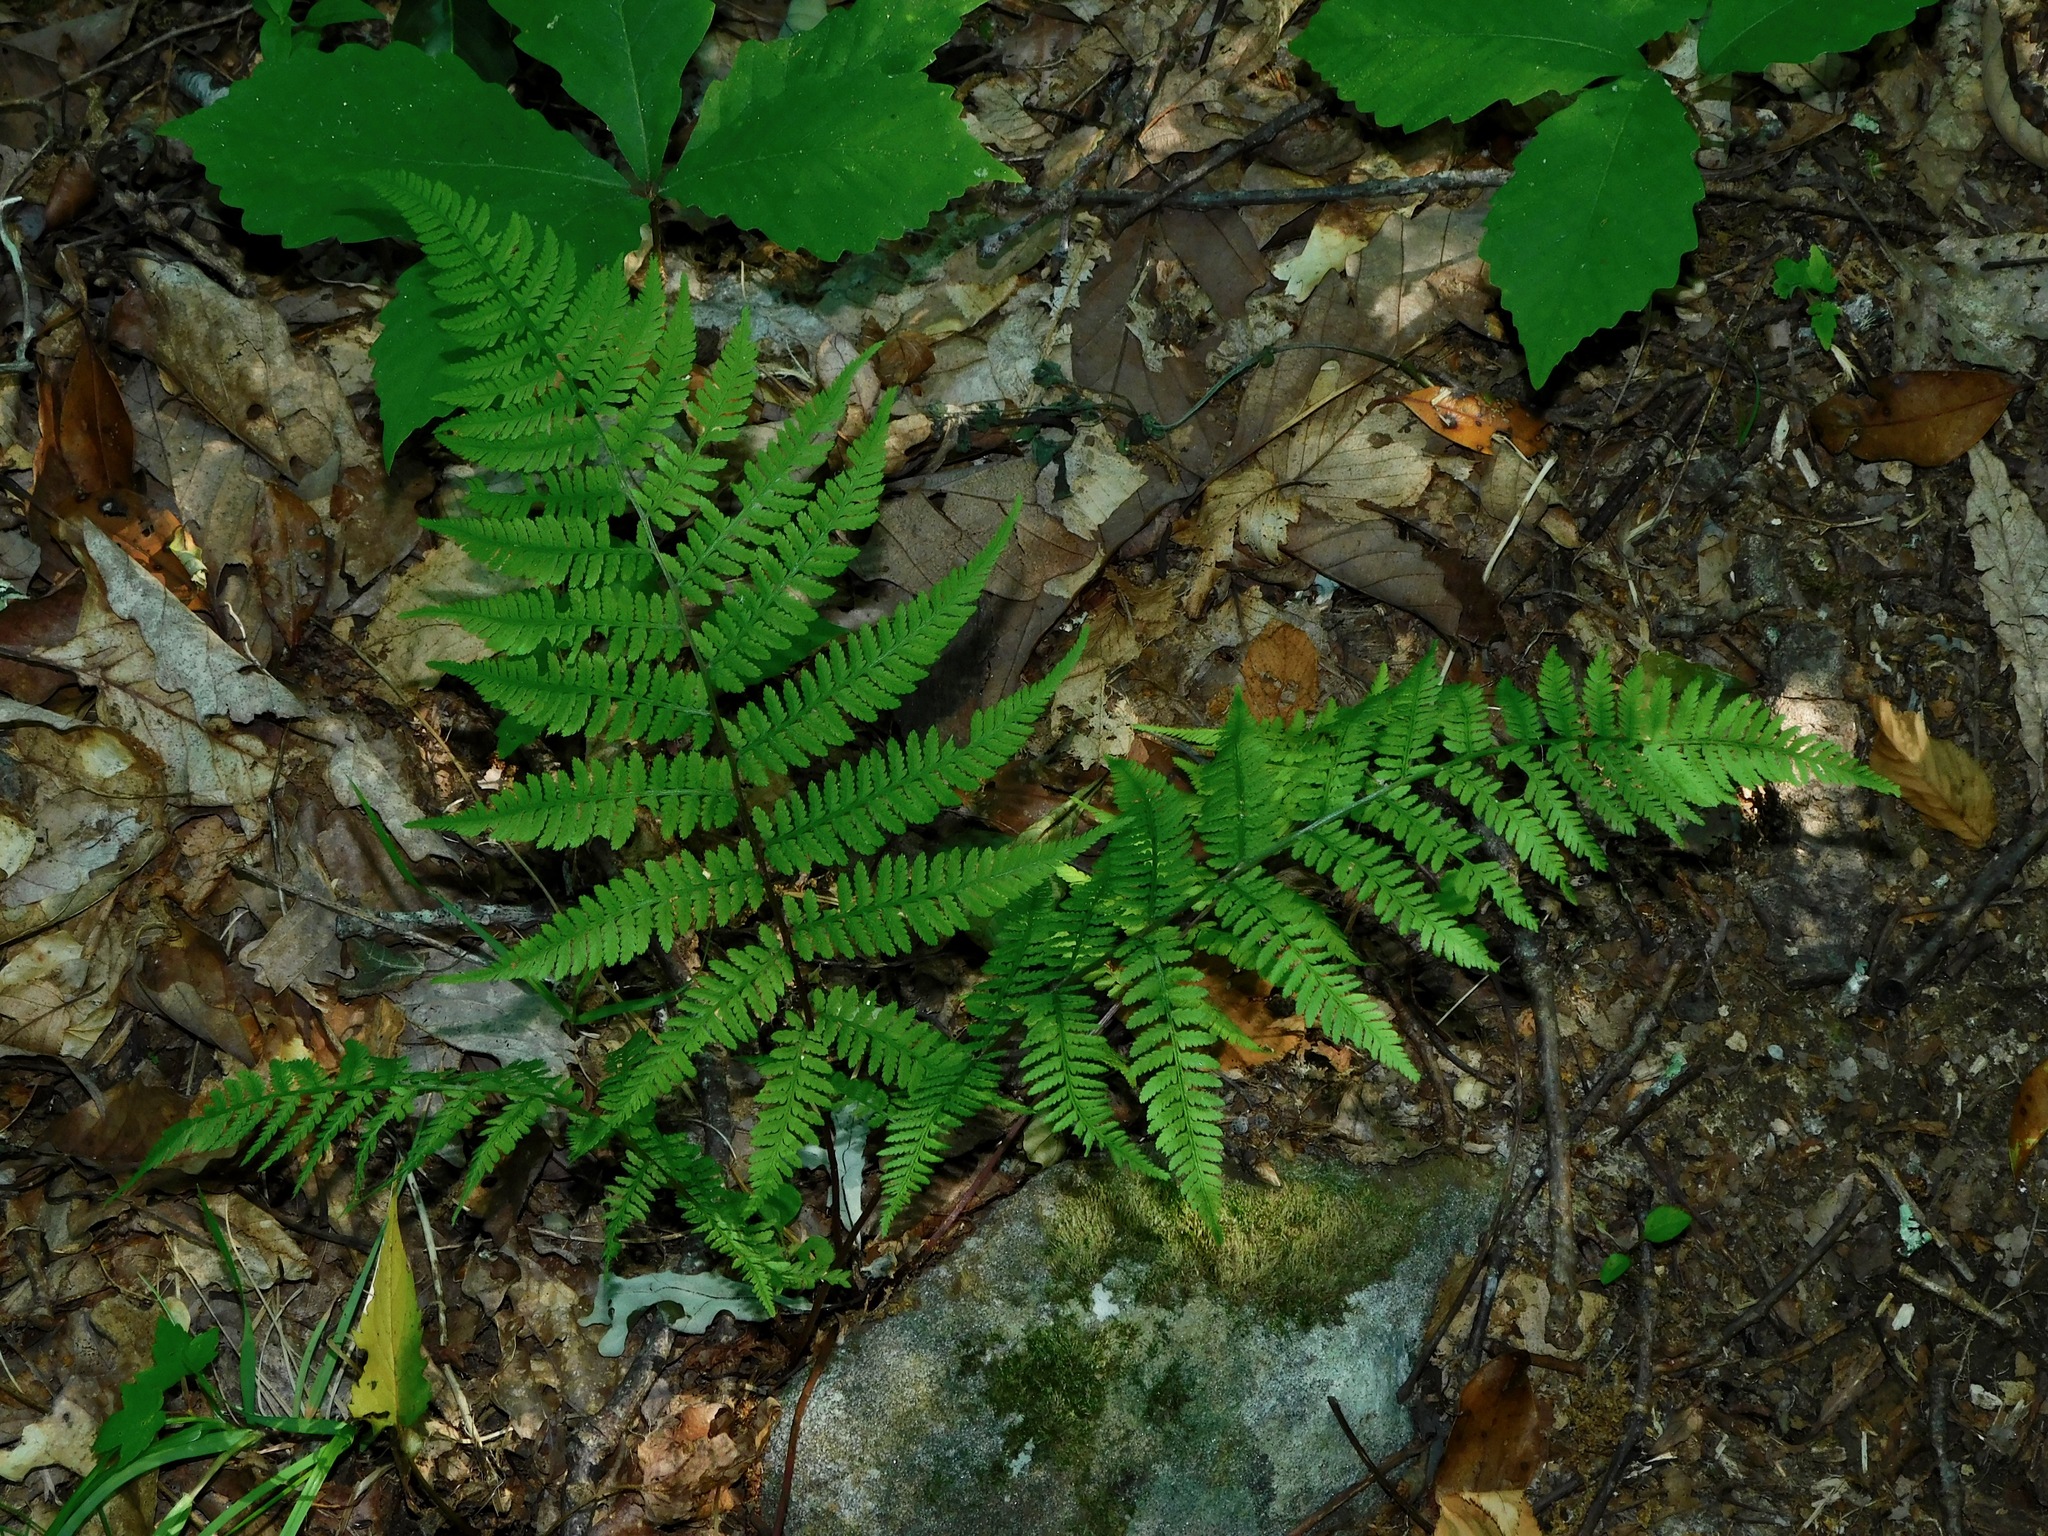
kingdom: Plantae
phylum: Tracheophyta
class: Polypodiopsida
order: Polypodiales
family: Athyriaceae
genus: Athyrium
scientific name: Athyrium asplenioides
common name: Southern lady fern
